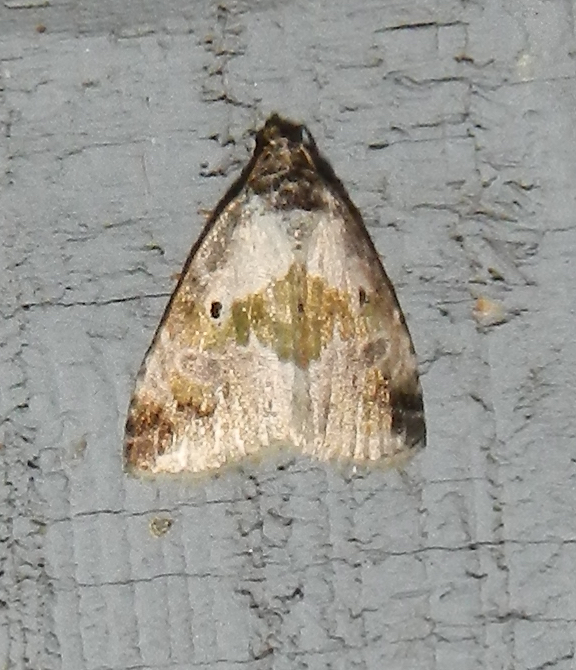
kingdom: Animalia
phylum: Arthropoda
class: Insecta
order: Lepidoptera
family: Noctuidae
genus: Maliattha
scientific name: Maliattha synochitis
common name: Black-dotted glyph
